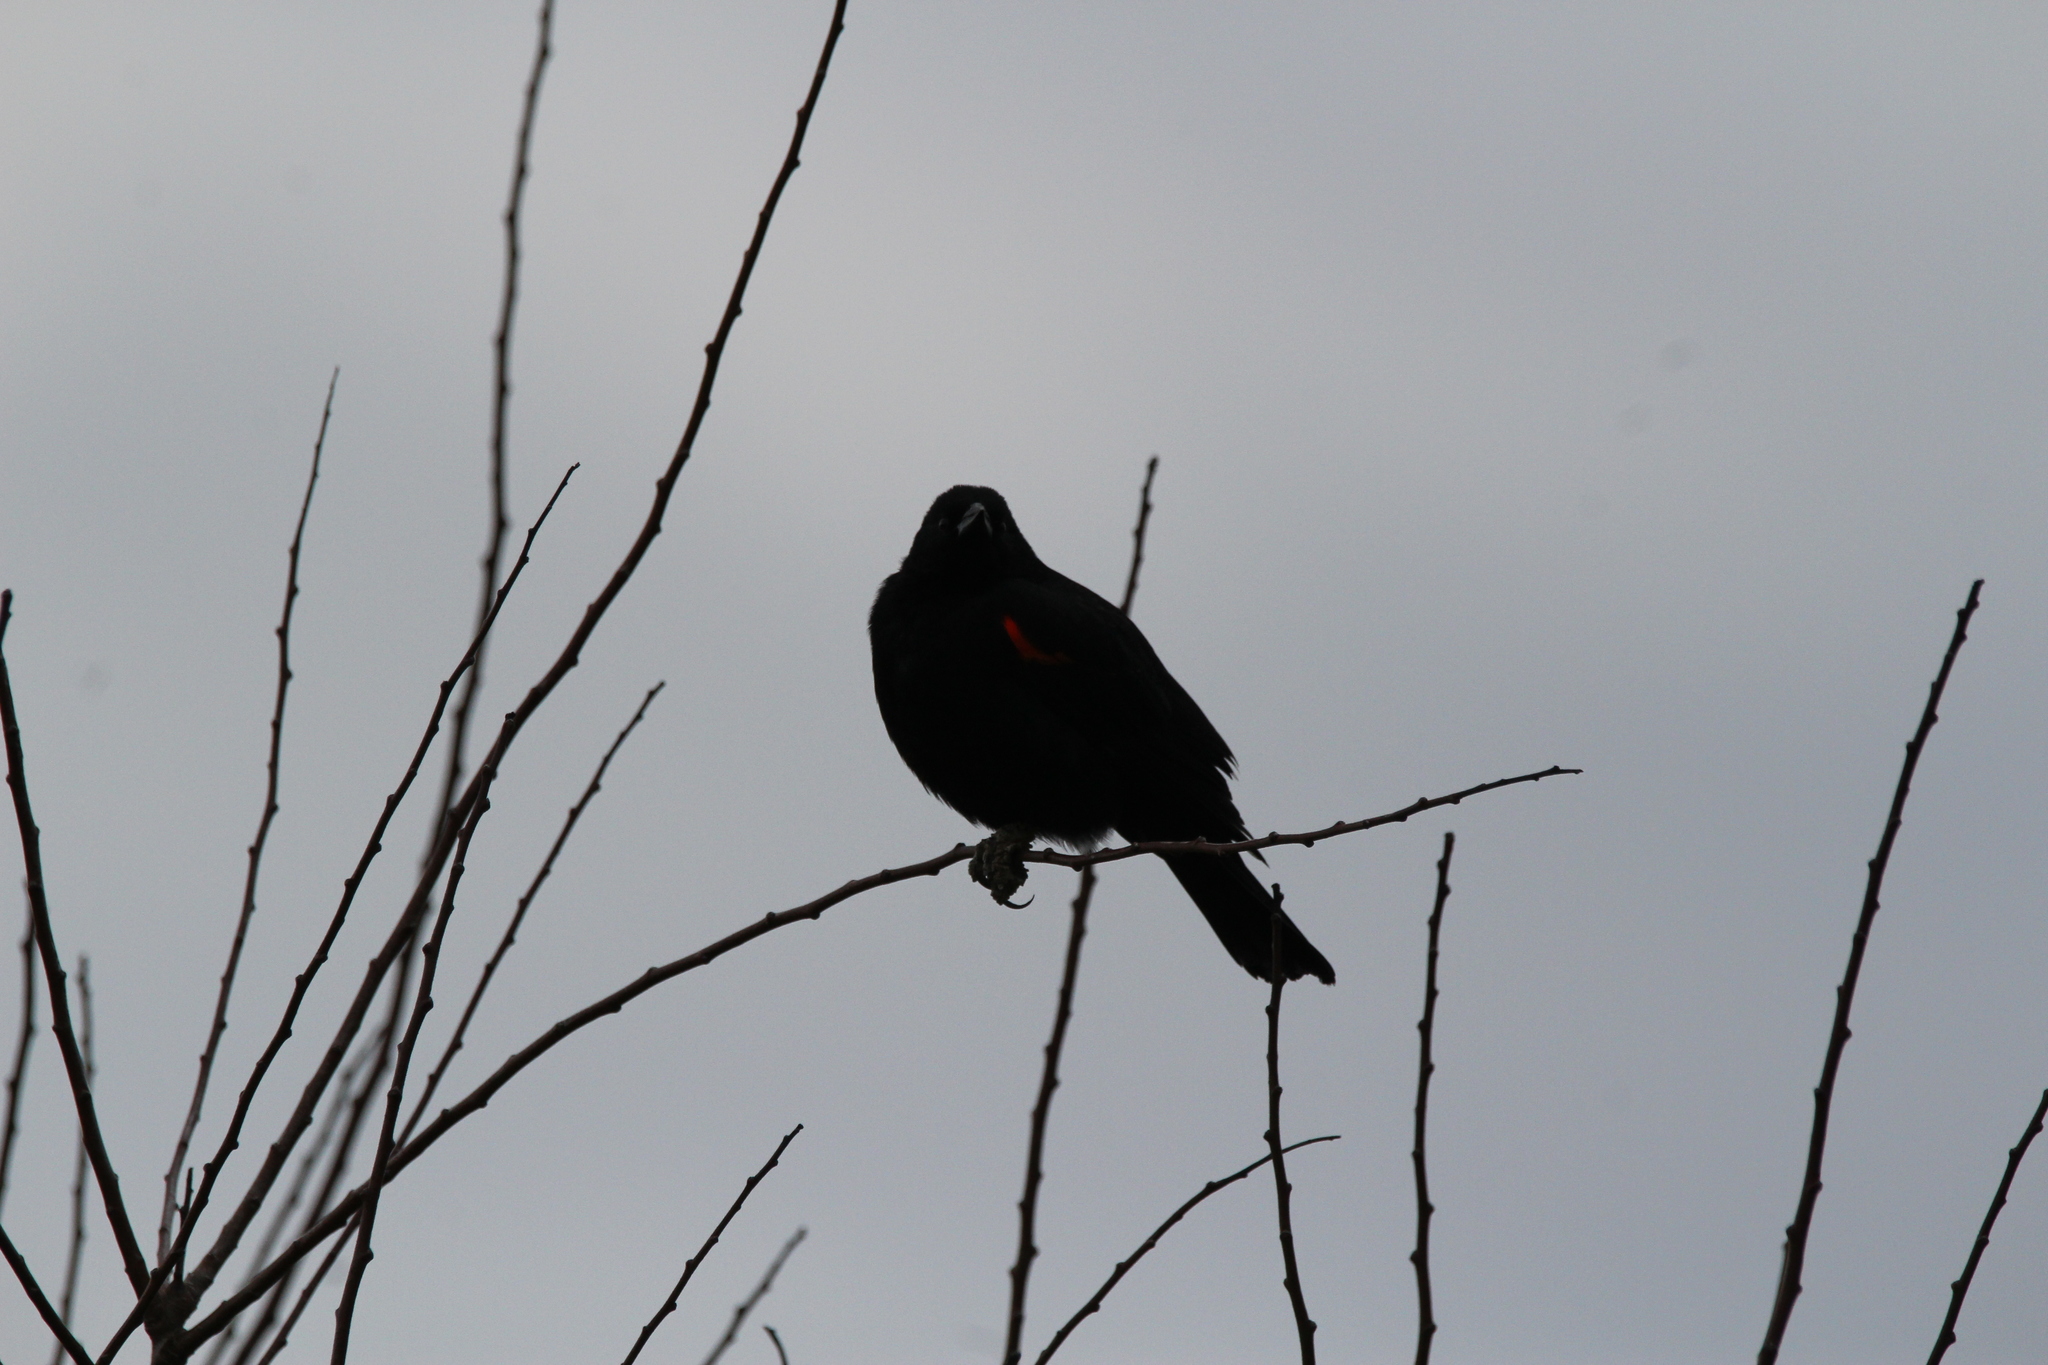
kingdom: Animalia
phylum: Chordata
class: Aves
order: Passeriformes
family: Icteridae
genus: Agelaius
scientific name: Agelaius phoeniceus
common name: Red-winged blackbird
